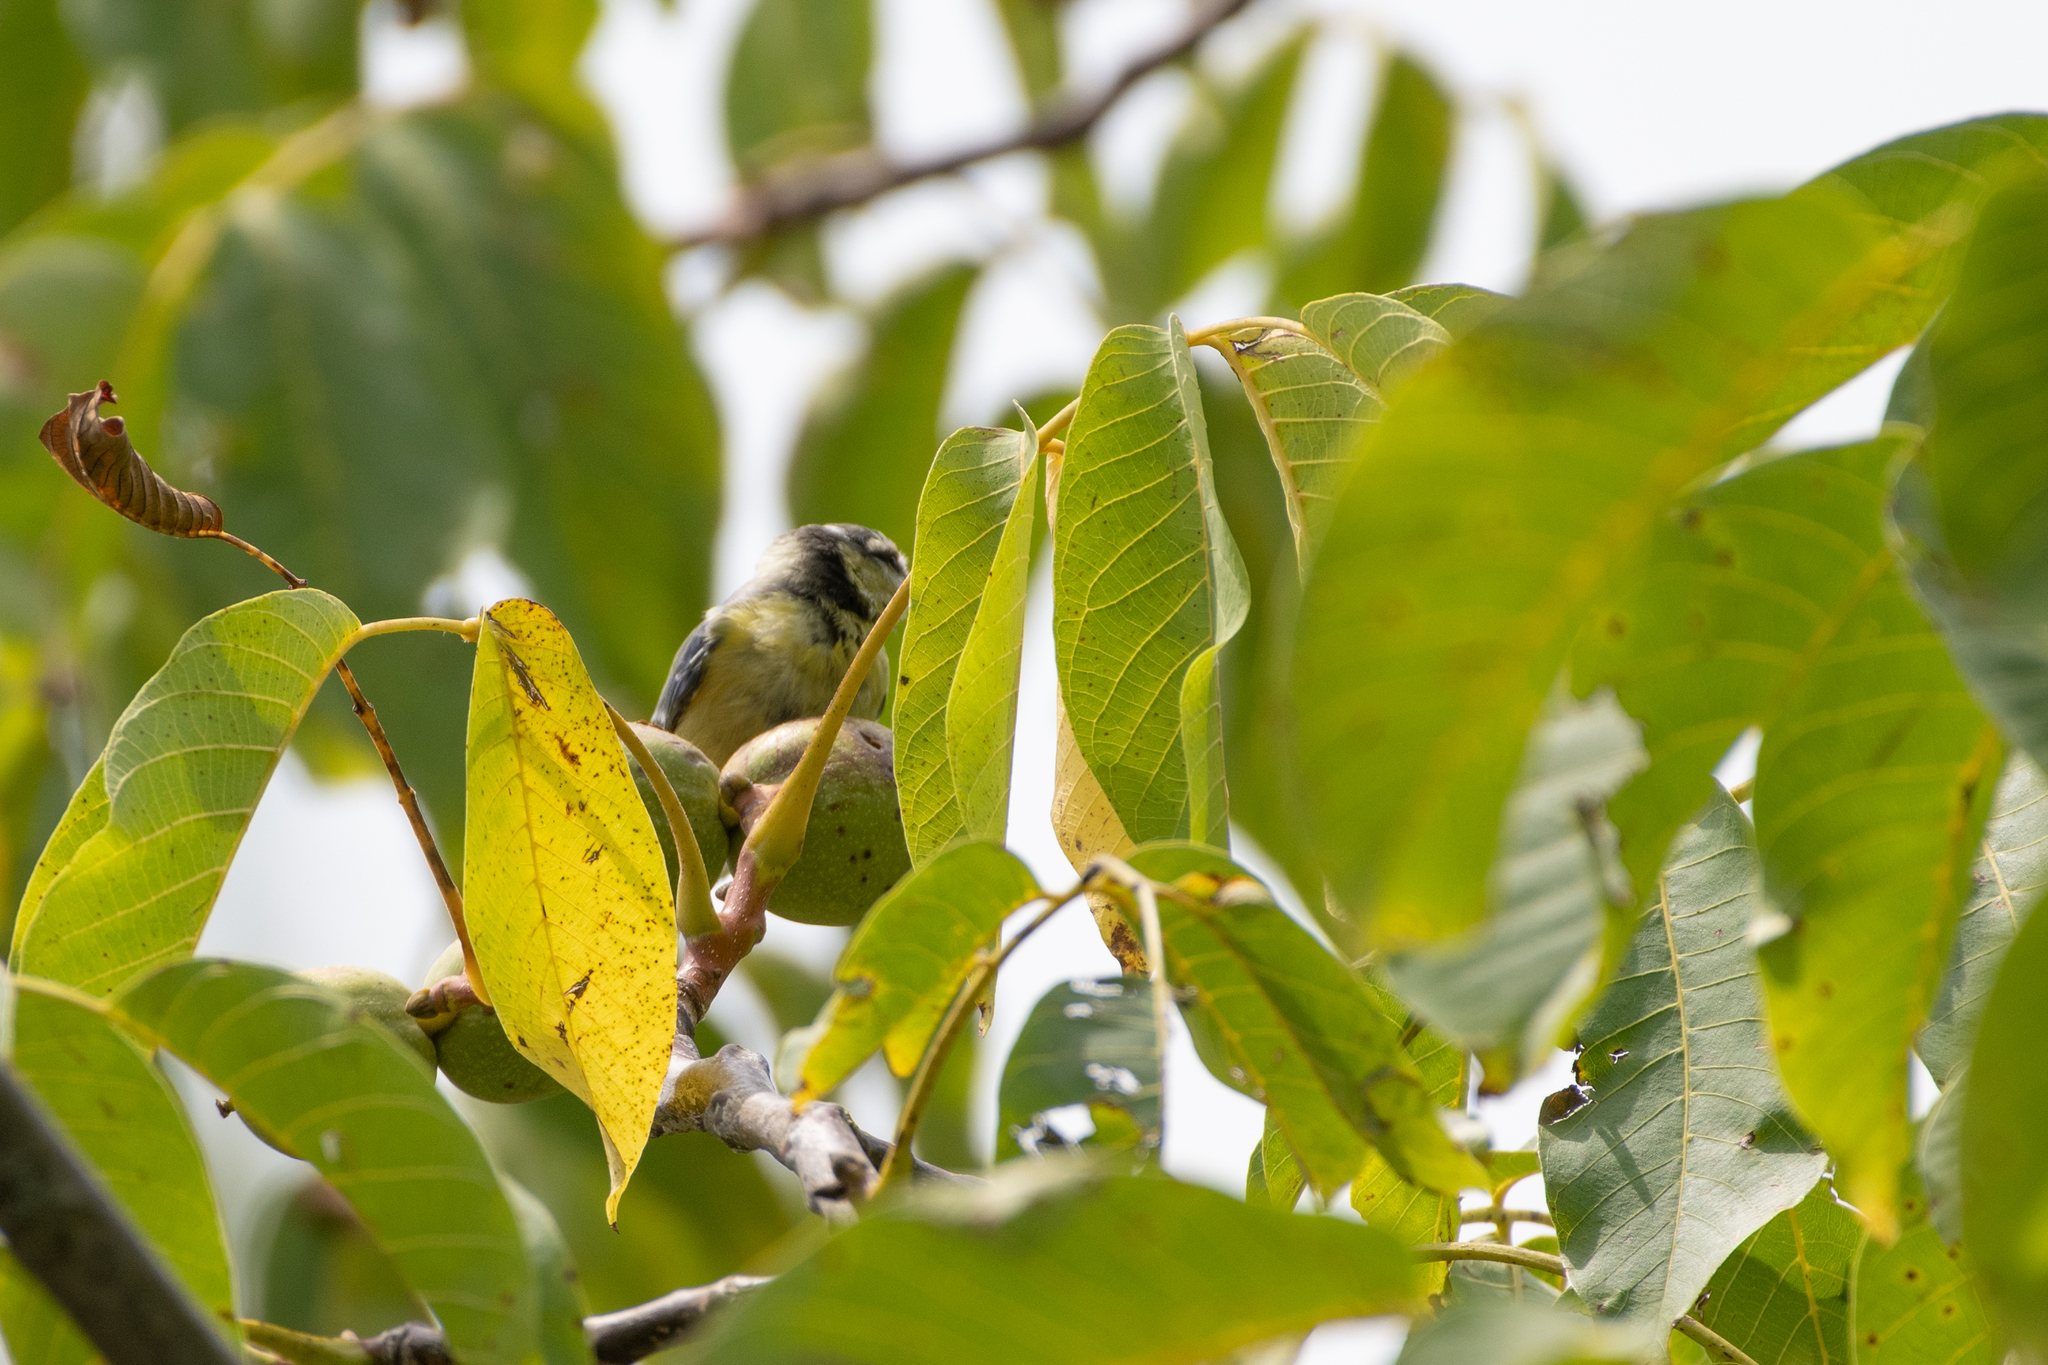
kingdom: Animalia
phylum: Chordata
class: Aves
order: Passeriformes
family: Paridae
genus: Cyanistes
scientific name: Cyanistes caeruleus
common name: Eurasian blue tit
